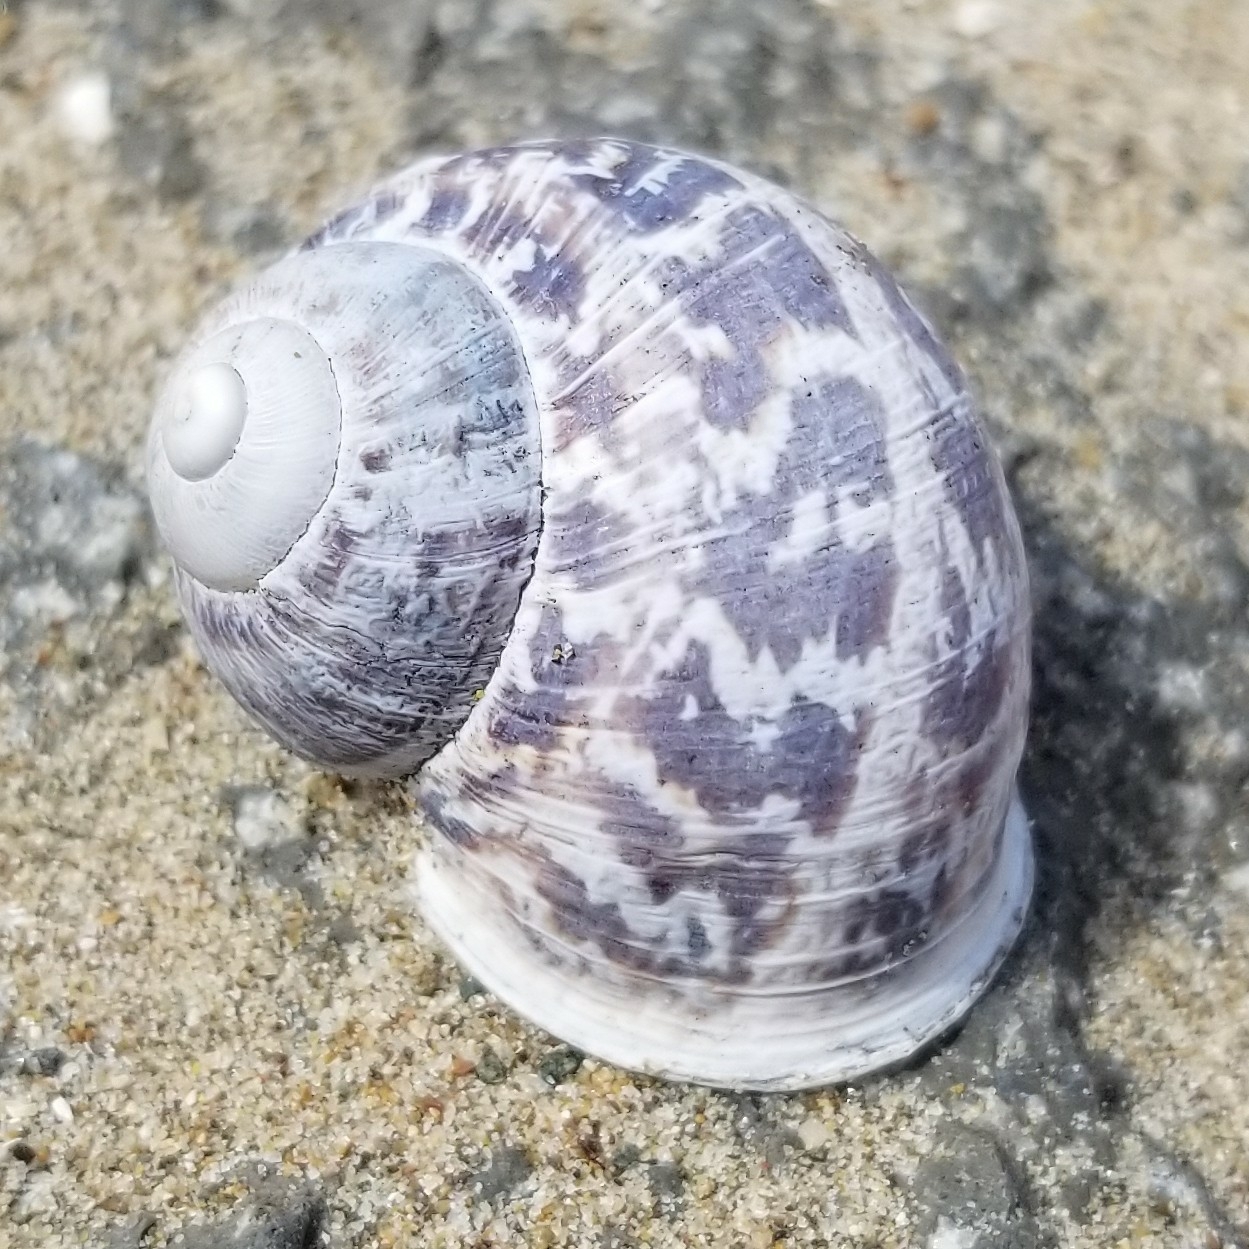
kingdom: Animalia
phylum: Mollusca
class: Gastropoda
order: Stylommatophora
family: Helicidae
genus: Cornu
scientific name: Cornu aspersum
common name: Brown garden snail
